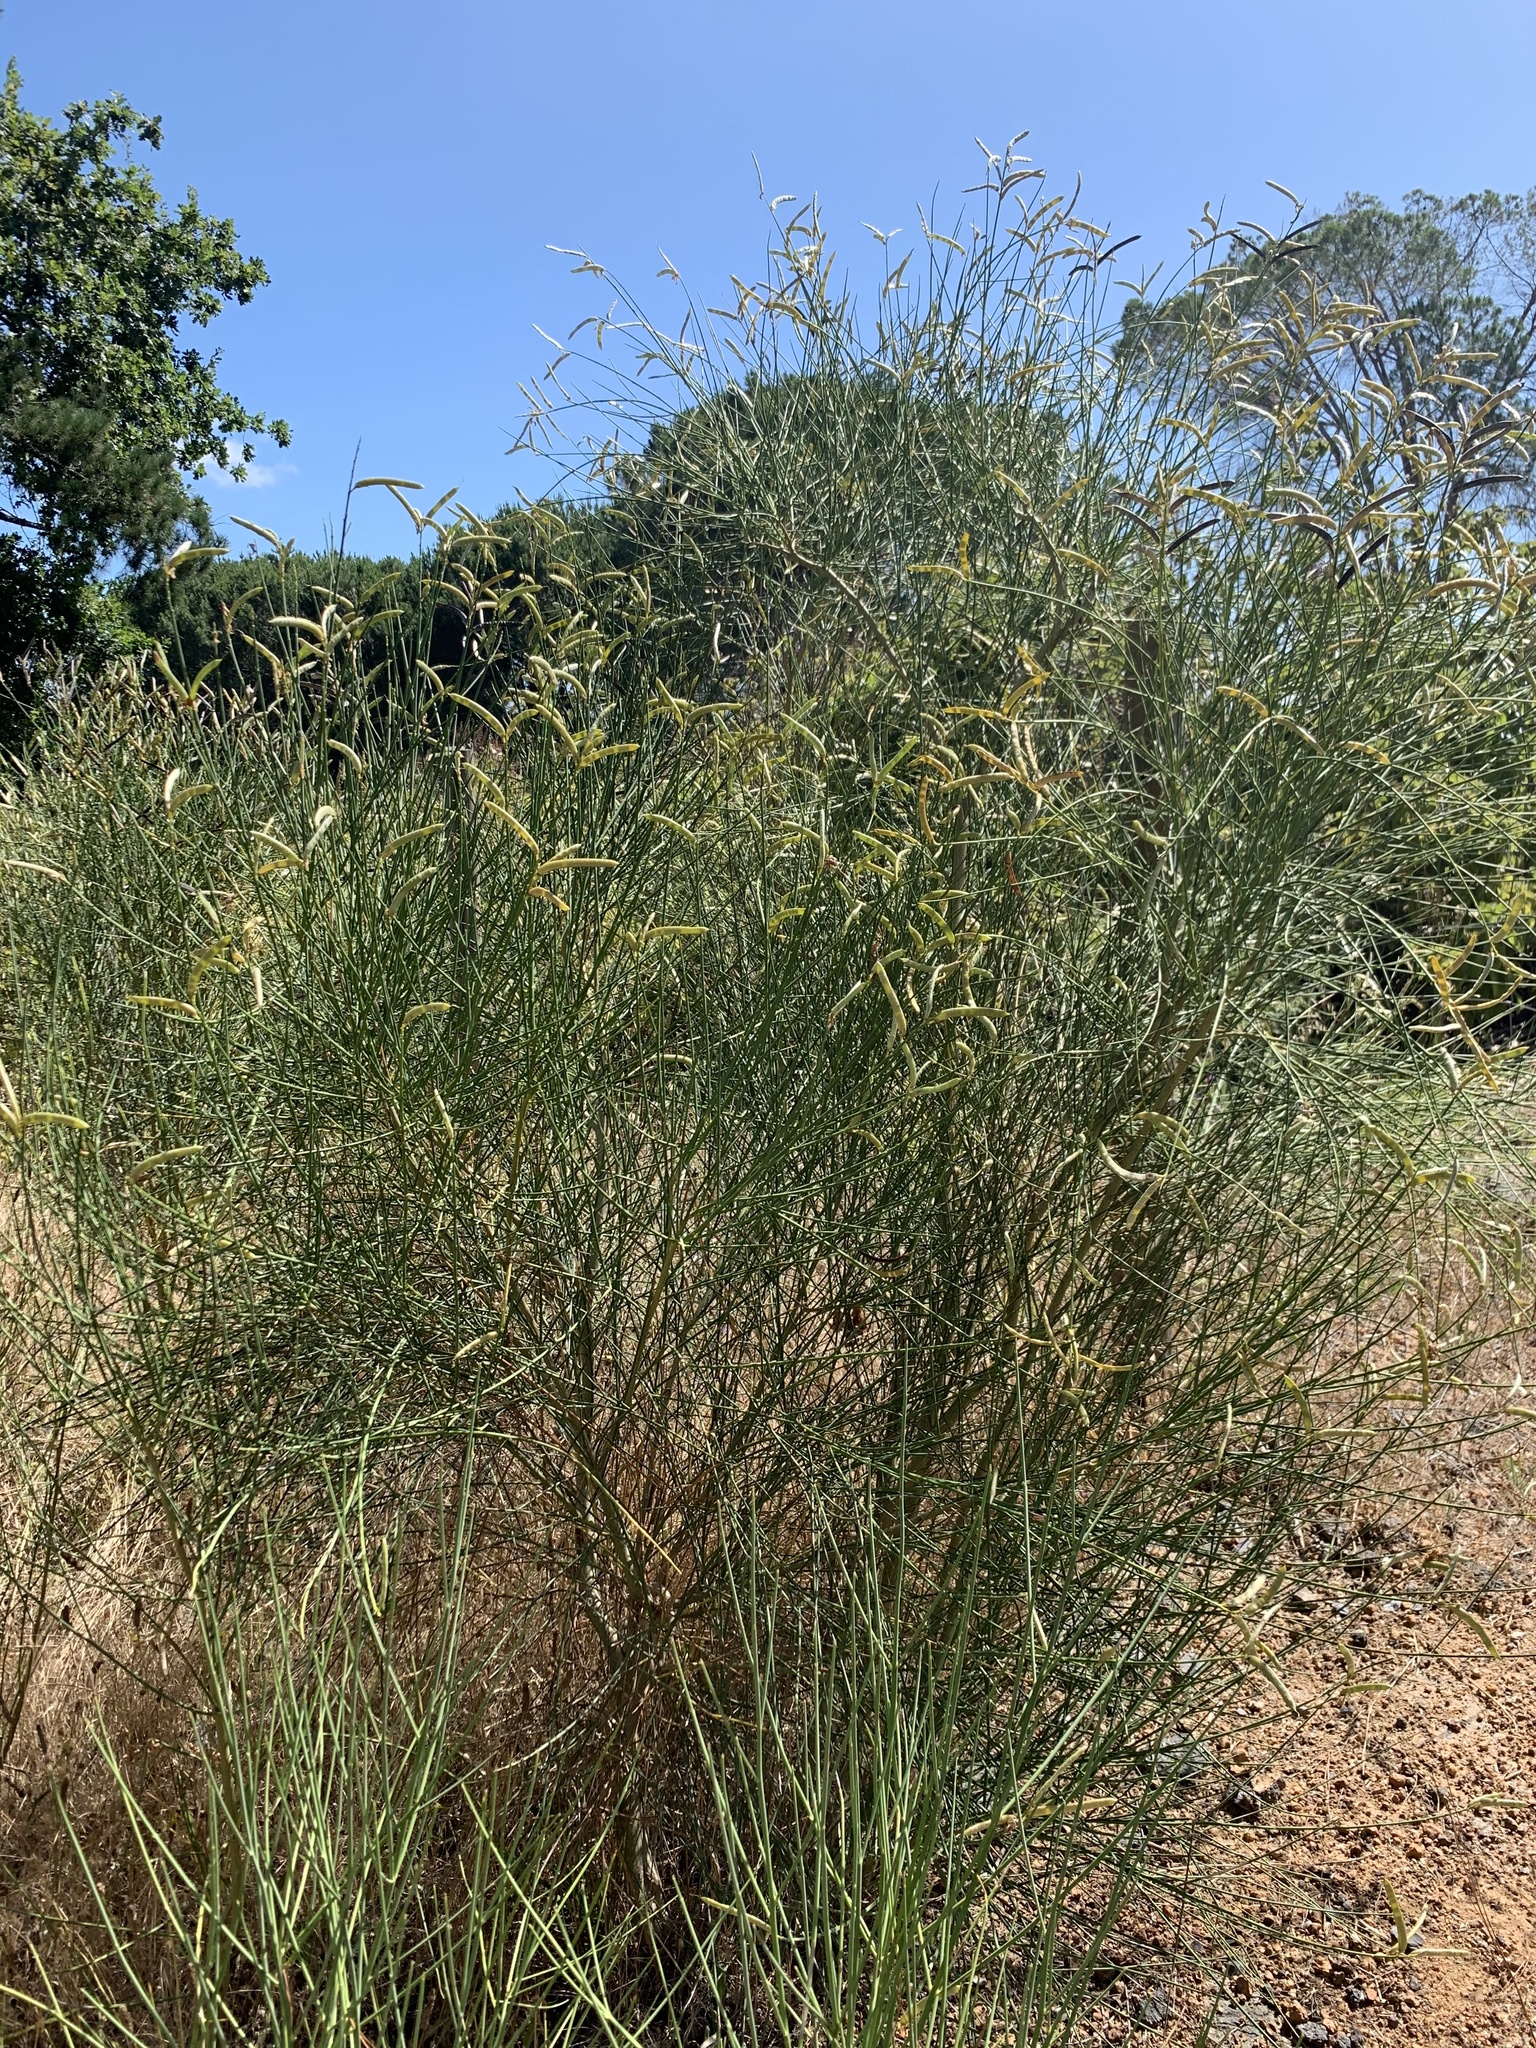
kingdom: Plantae
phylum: Tracheophyta
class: Magnoliopsida
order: Fabales
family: Fabaceae
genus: Spartium
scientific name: Spartium junceum
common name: Spanish broom
